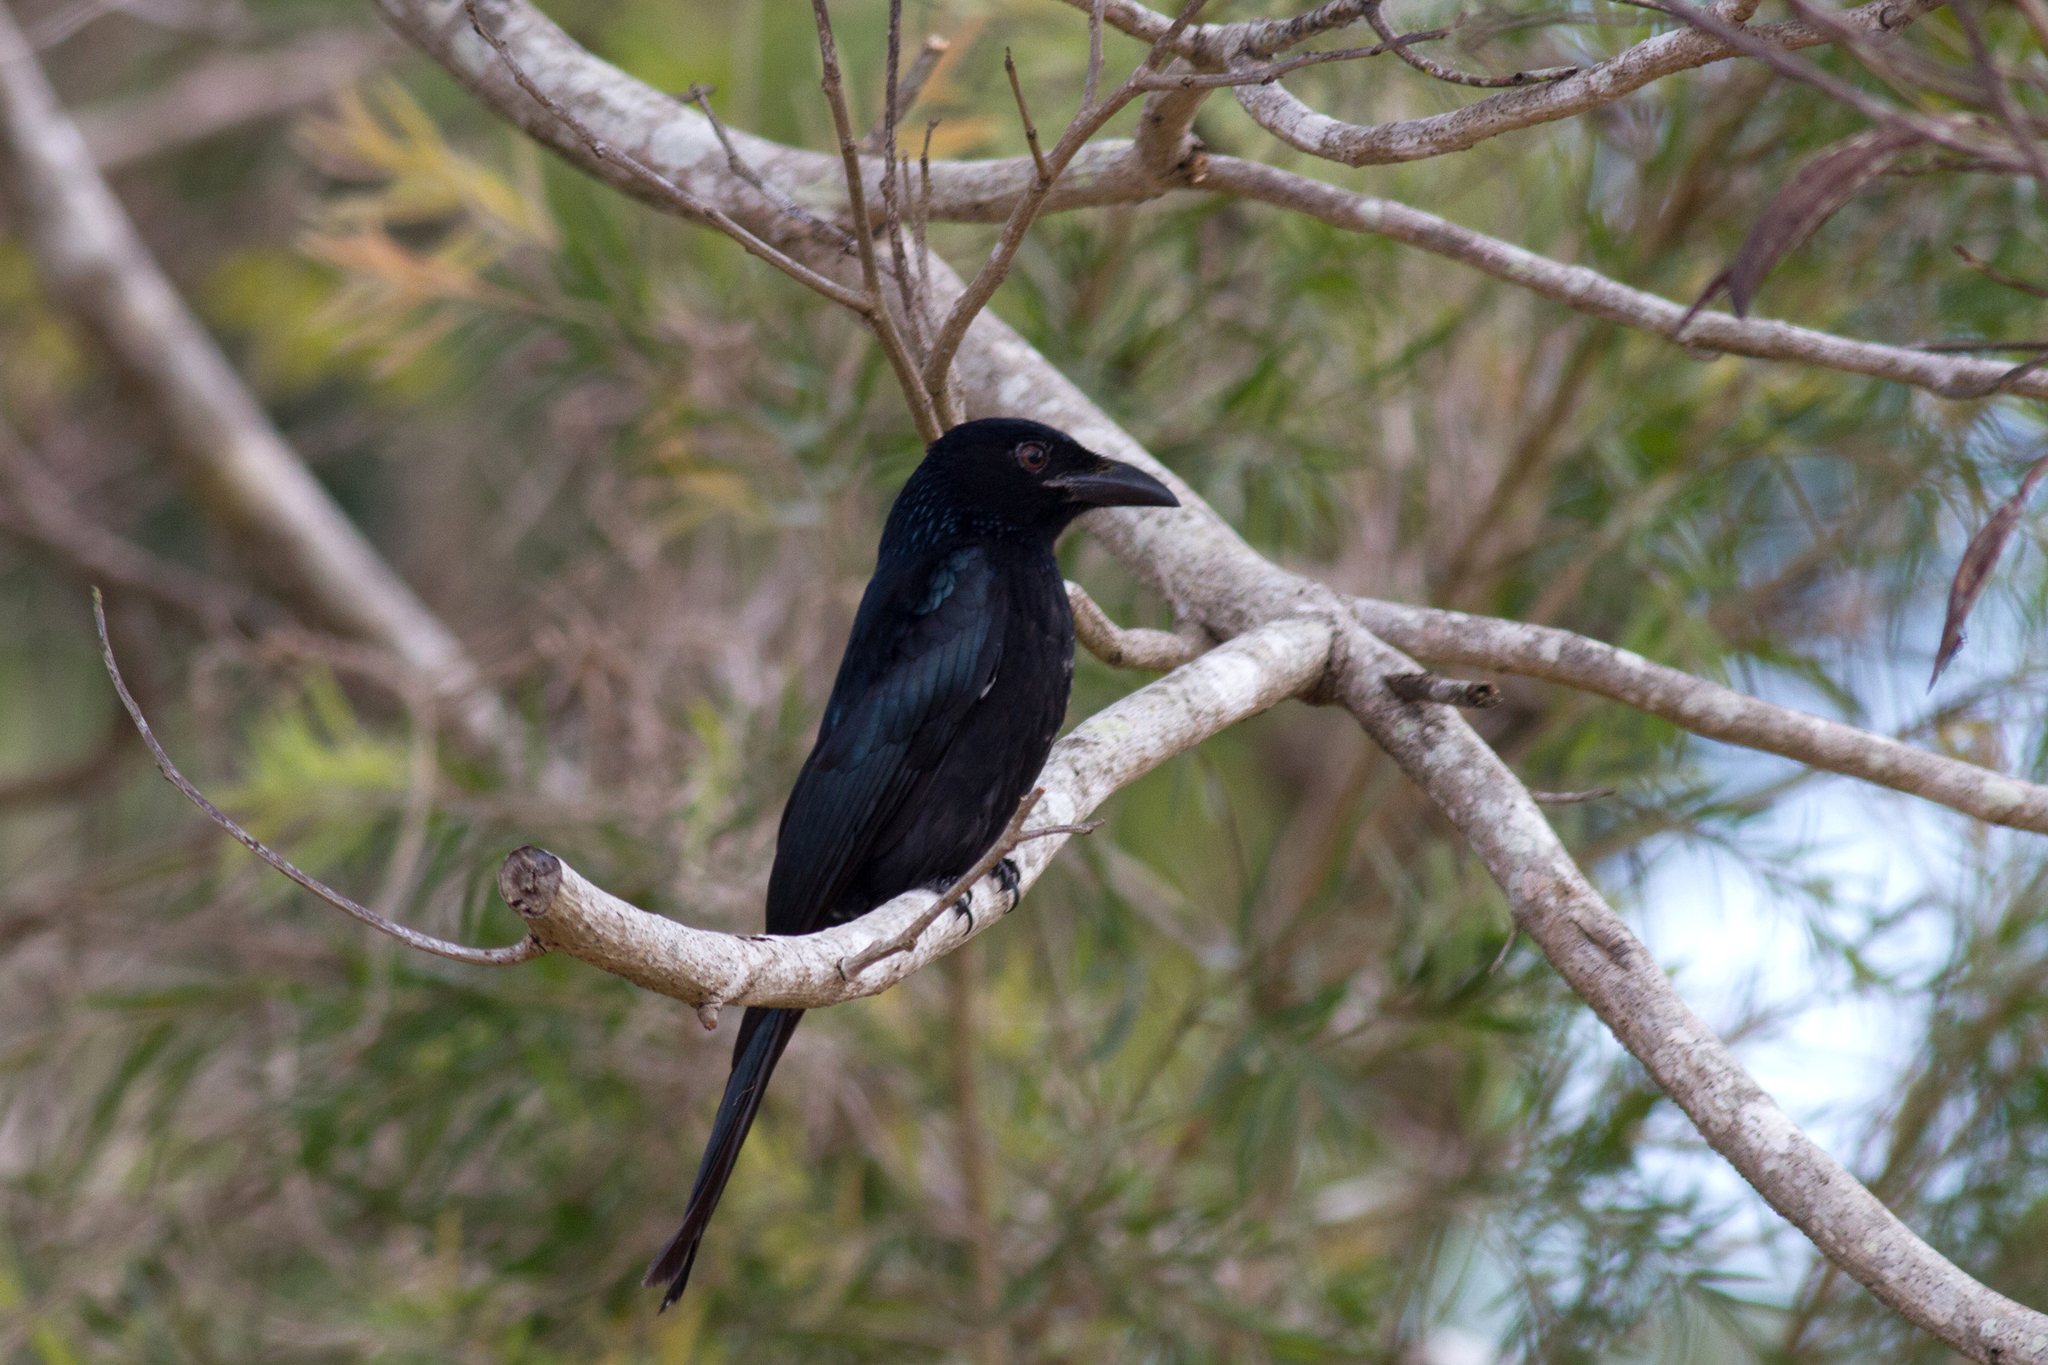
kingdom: Animalia
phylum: Chordata
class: Aves
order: Passeriformes
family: Dicruridae
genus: Dicrurus
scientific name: Dicrurus bracteatus
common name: Spangled drongo
